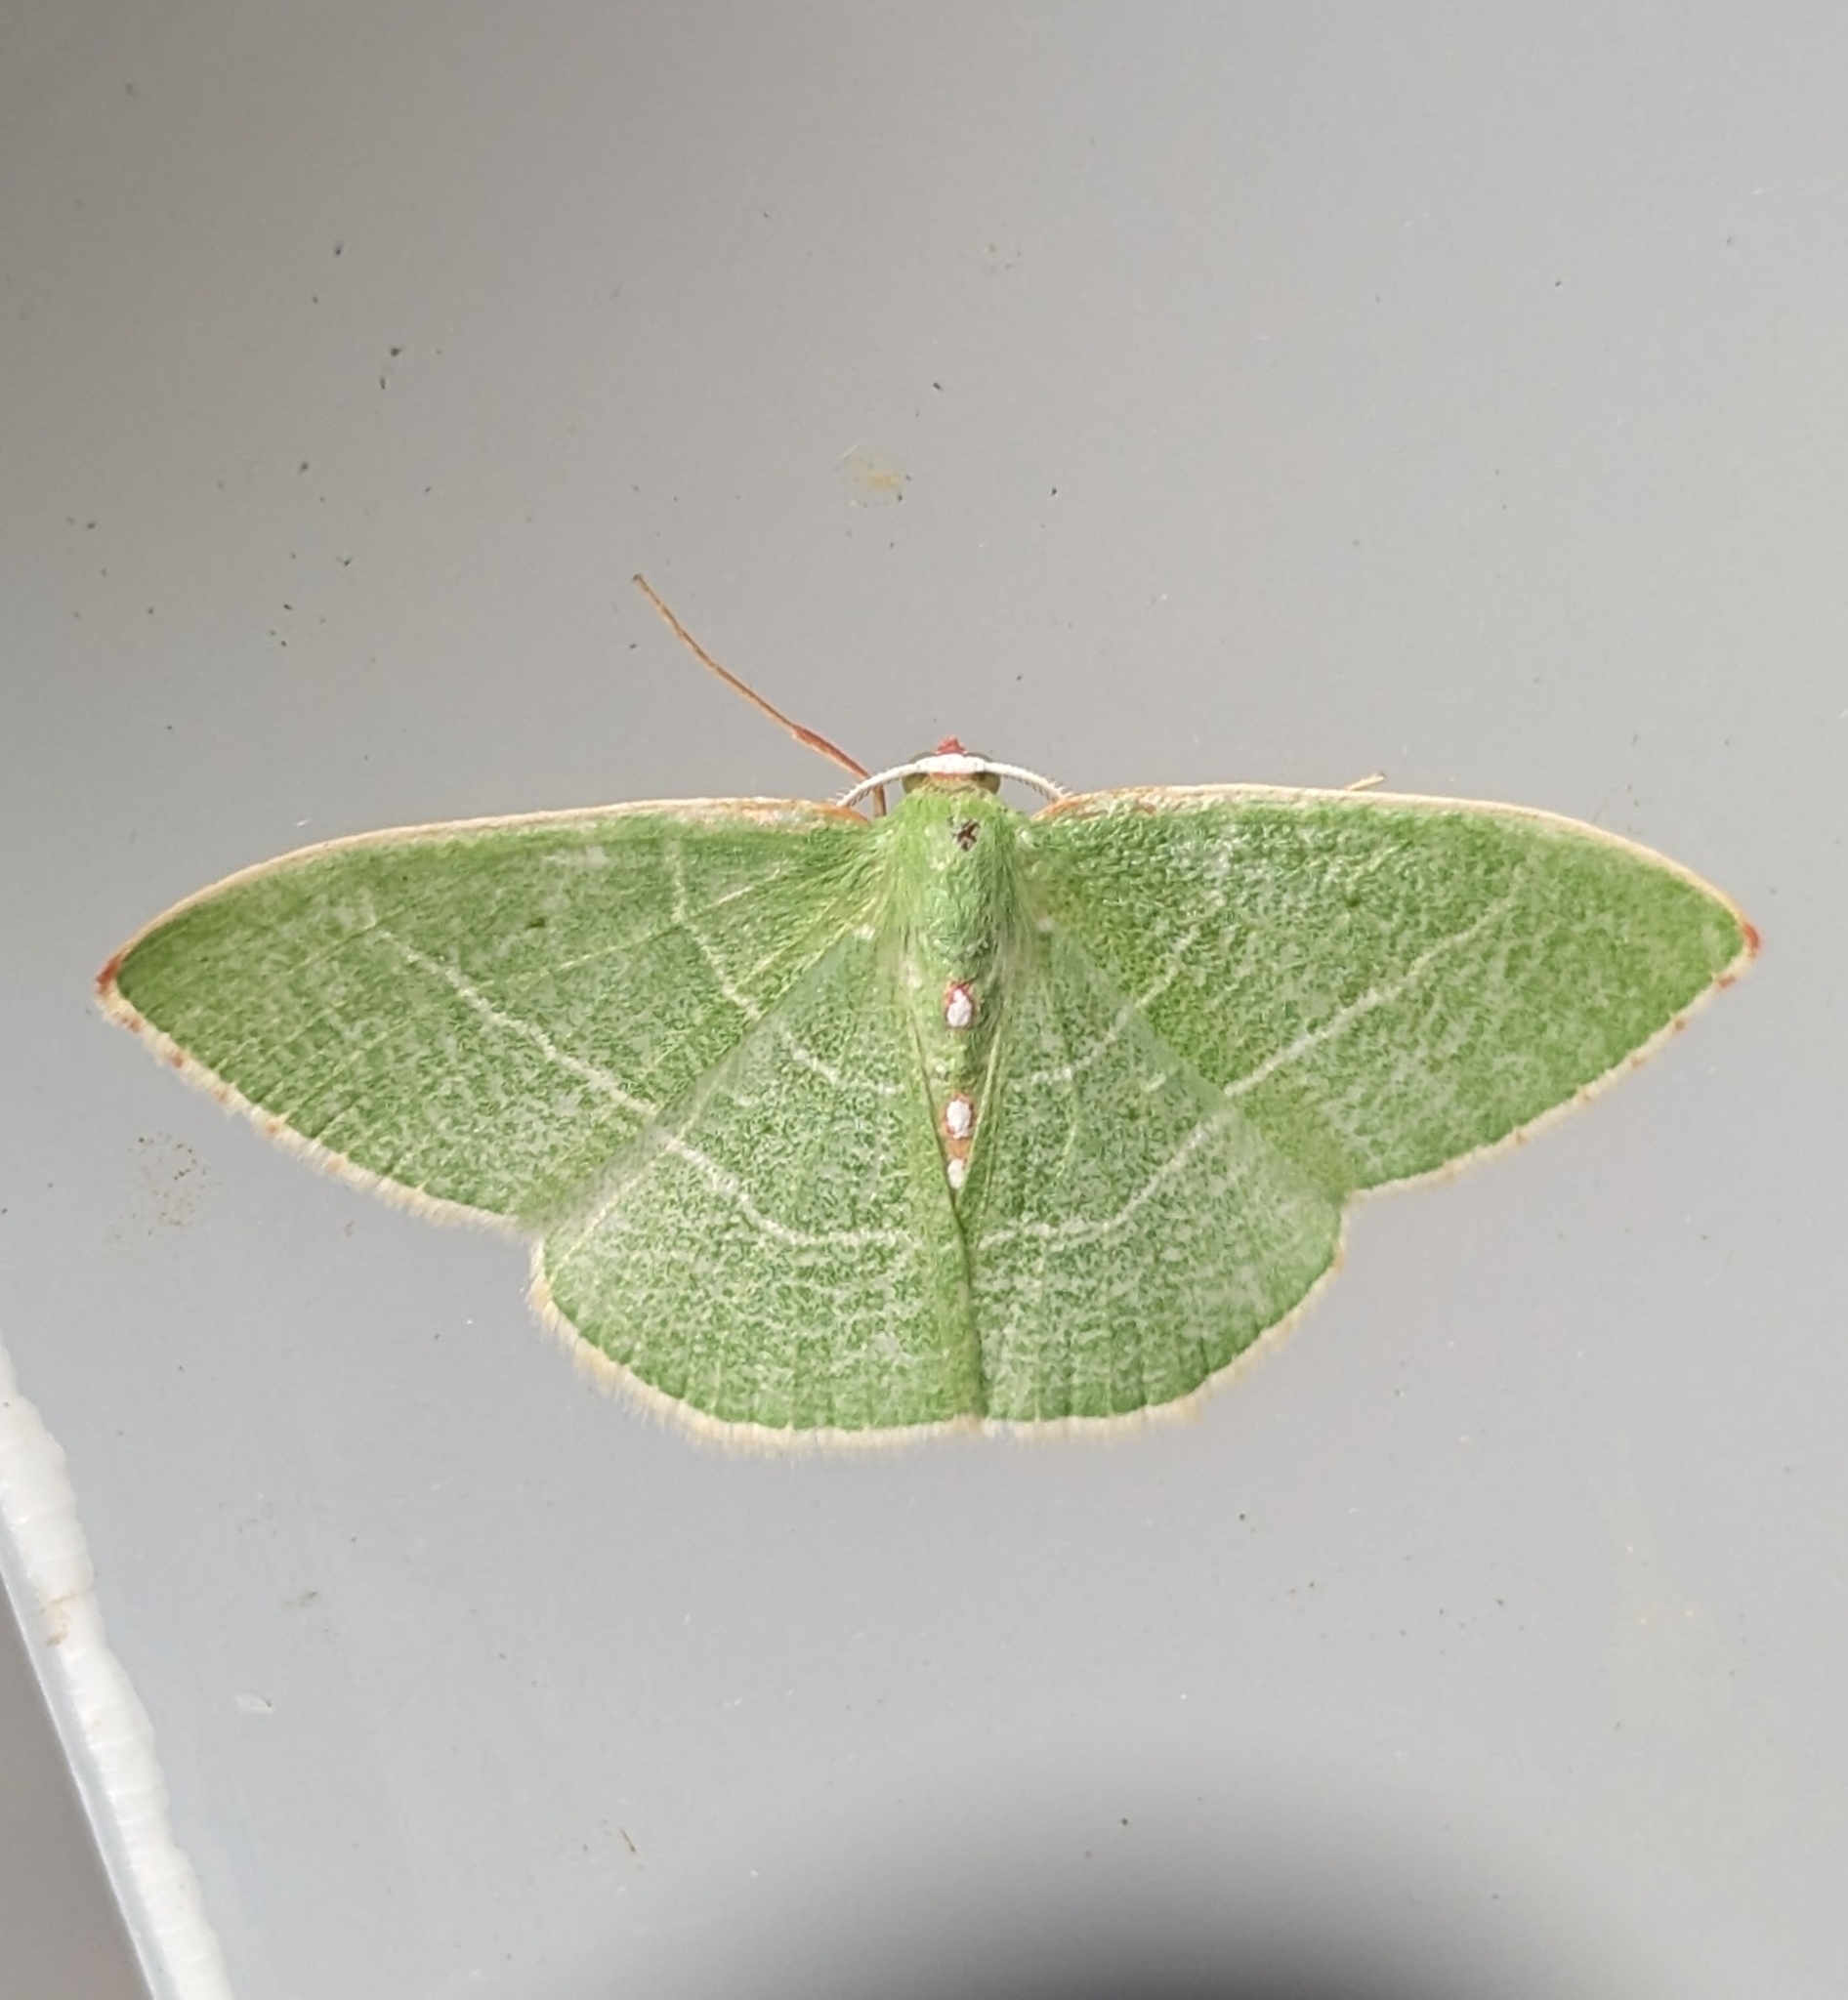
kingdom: Animalia
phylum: Arthropoda
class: Insecta
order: Lepidoptera
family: Geometridae
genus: Nemoria
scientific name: Nemoria darwiniata
